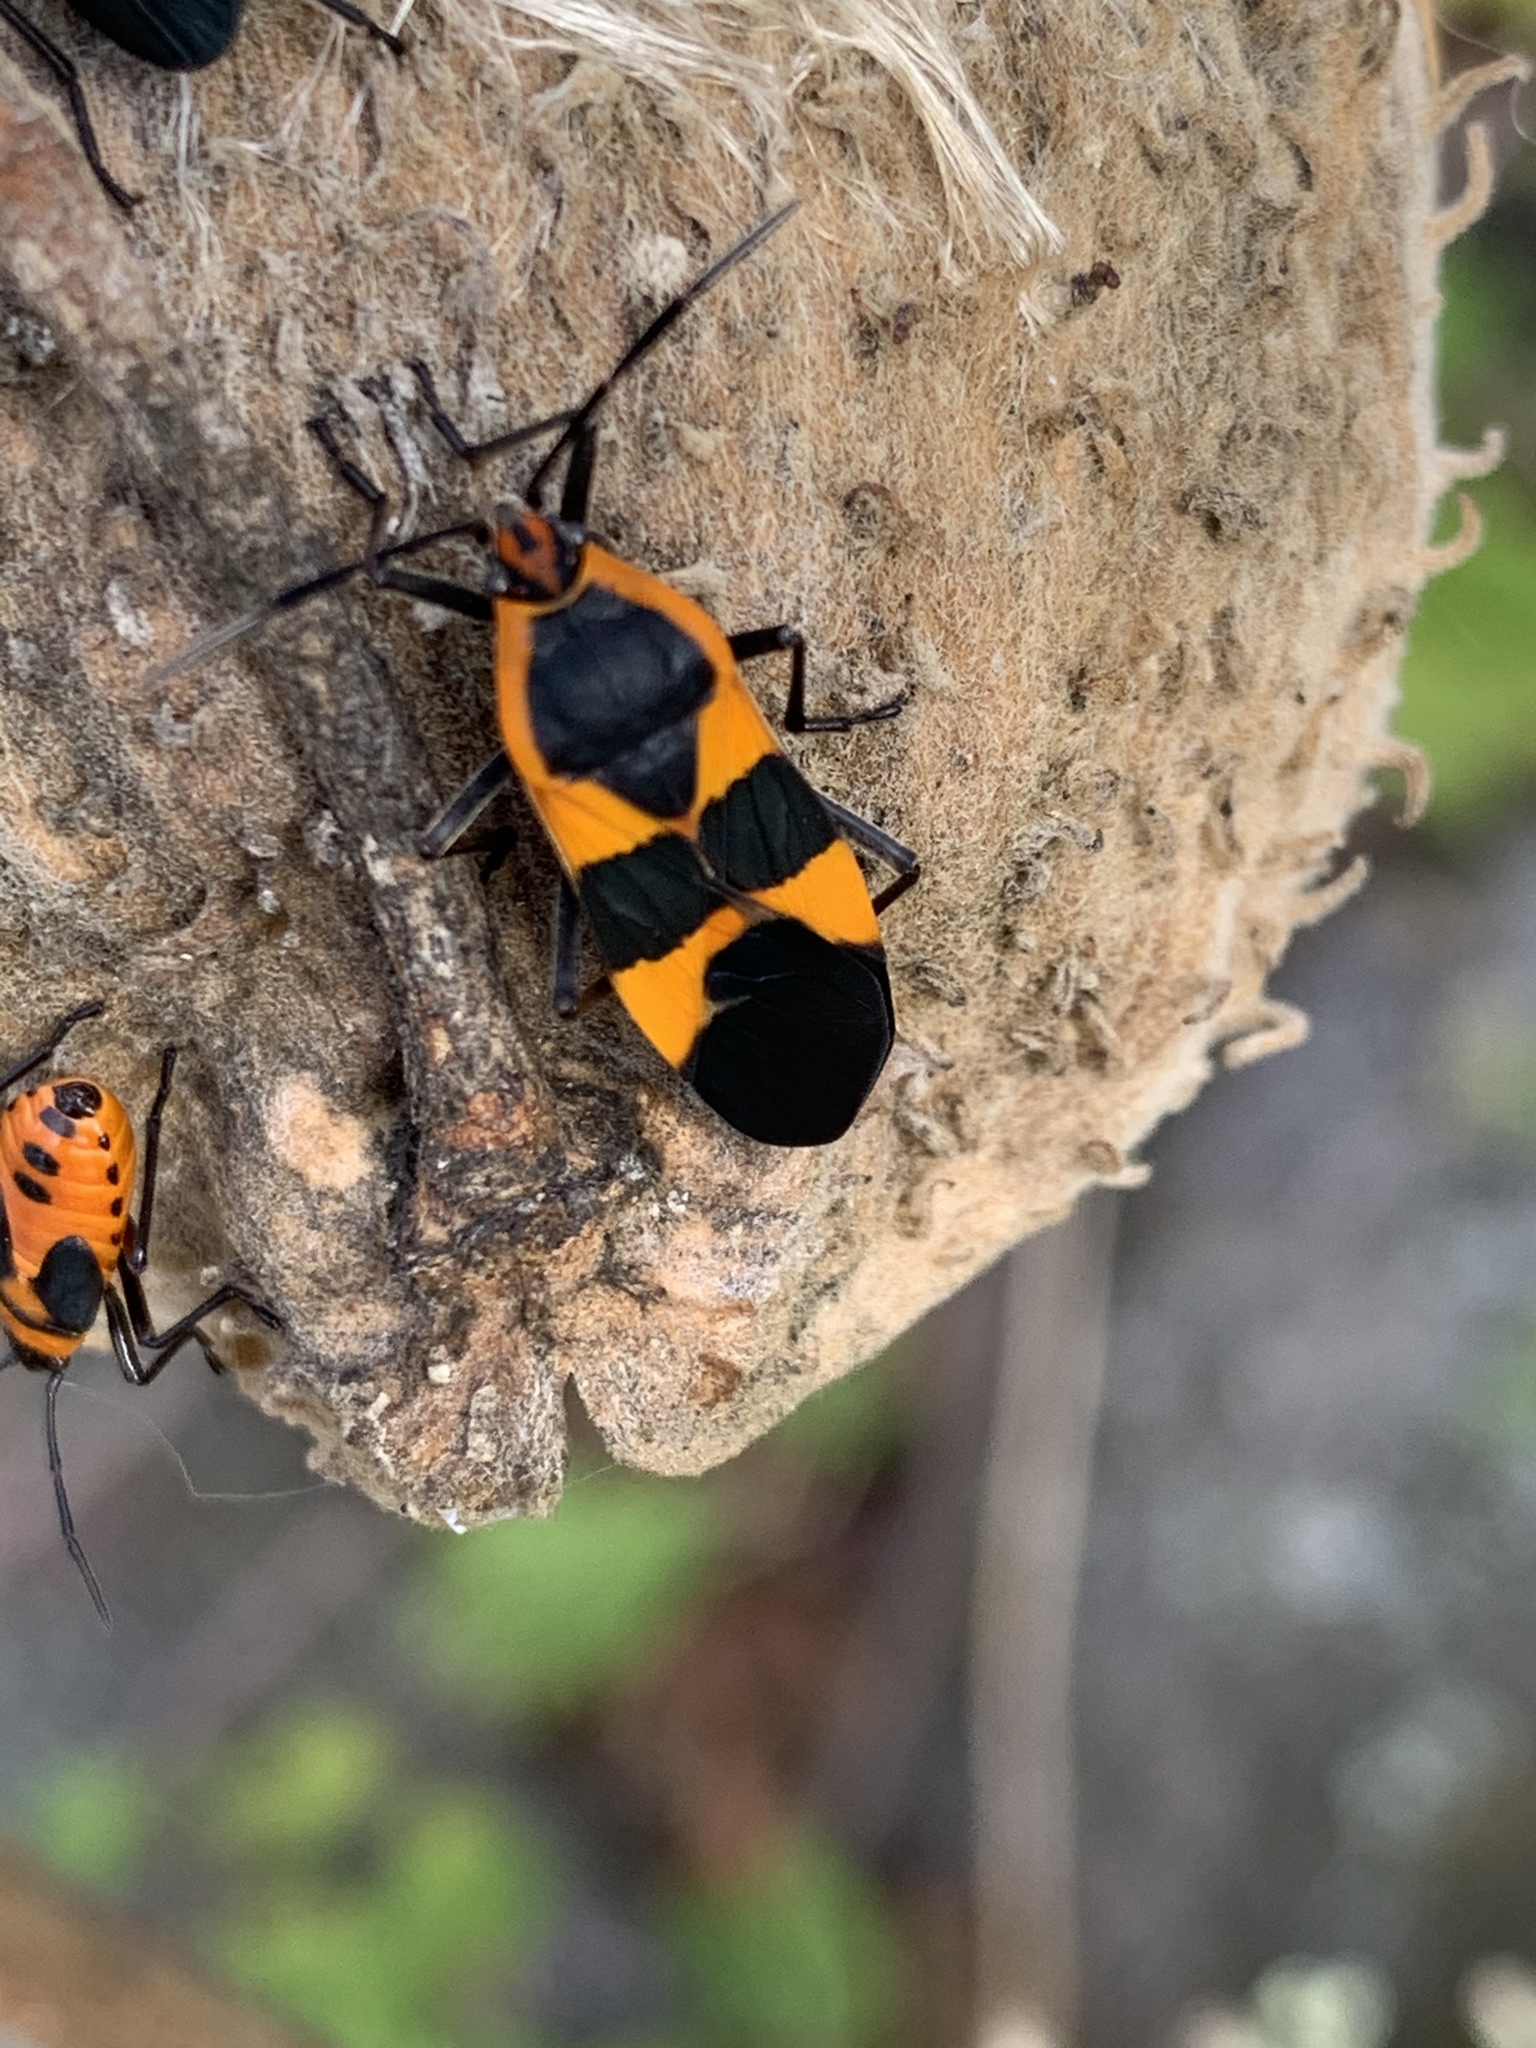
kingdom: Animalia
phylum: Arthropoda
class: Insecta
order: Hemiptera
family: Lygaeidae
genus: Oncopeltus
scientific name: Oncopeltus fasciatus
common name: Large milkweed bug
